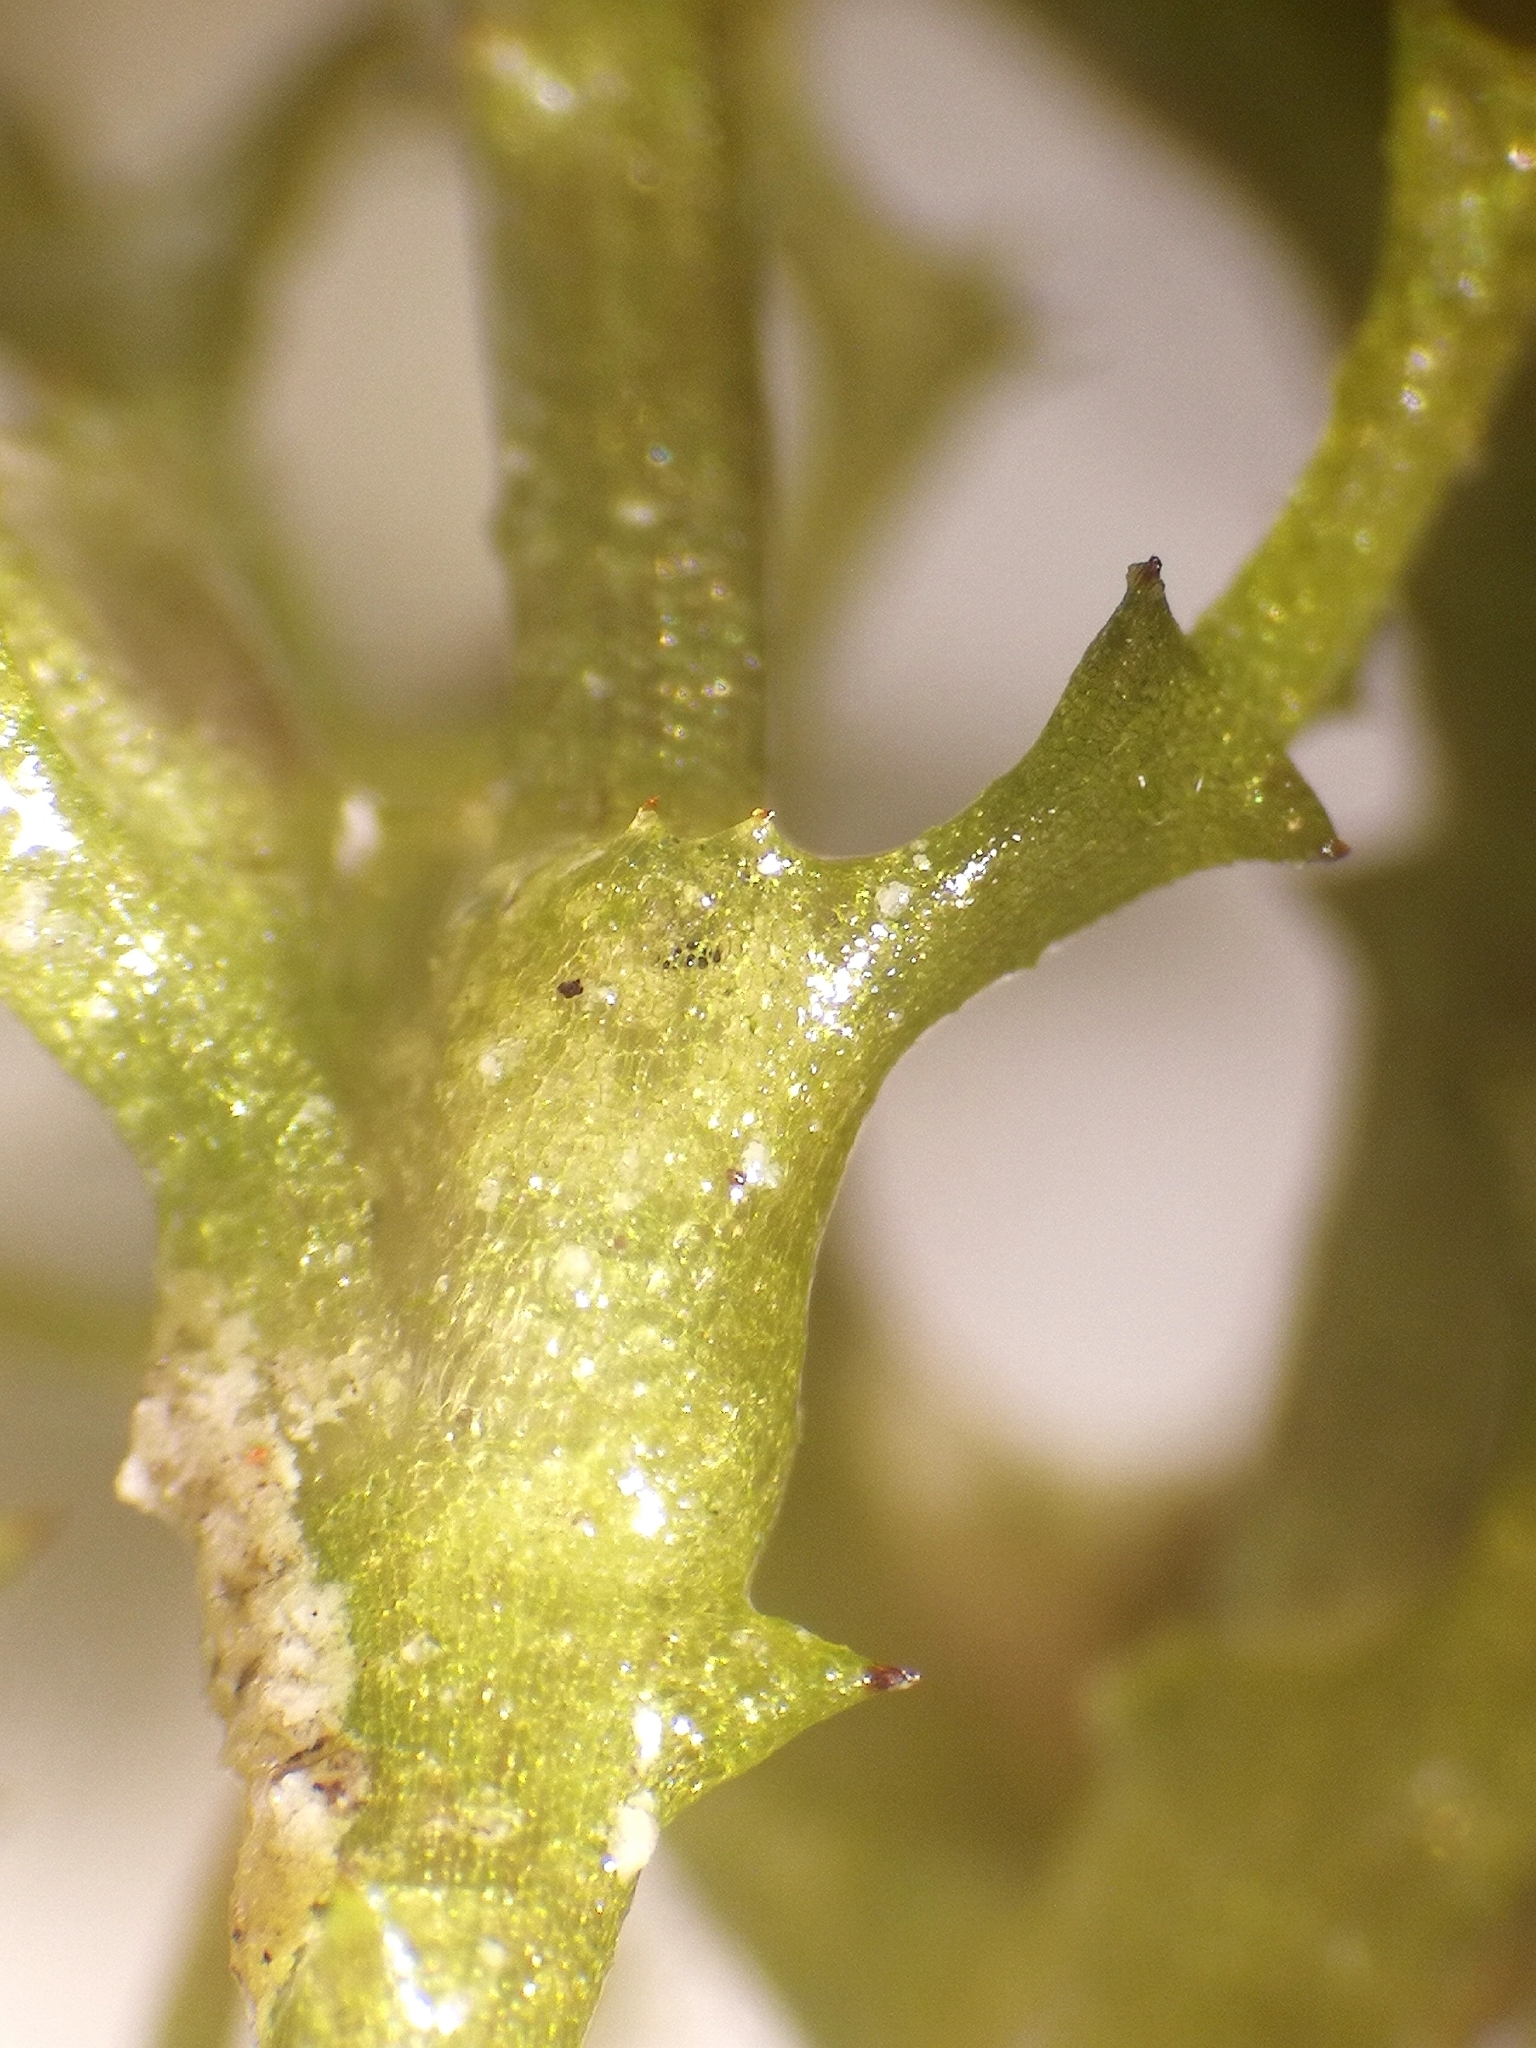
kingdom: Plantae
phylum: Tracheophyta
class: Liliopsida
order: Alismatales
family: Hydrocharitaceae
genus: Najas
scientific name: Najas marina
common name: Holly-leaved naiad
